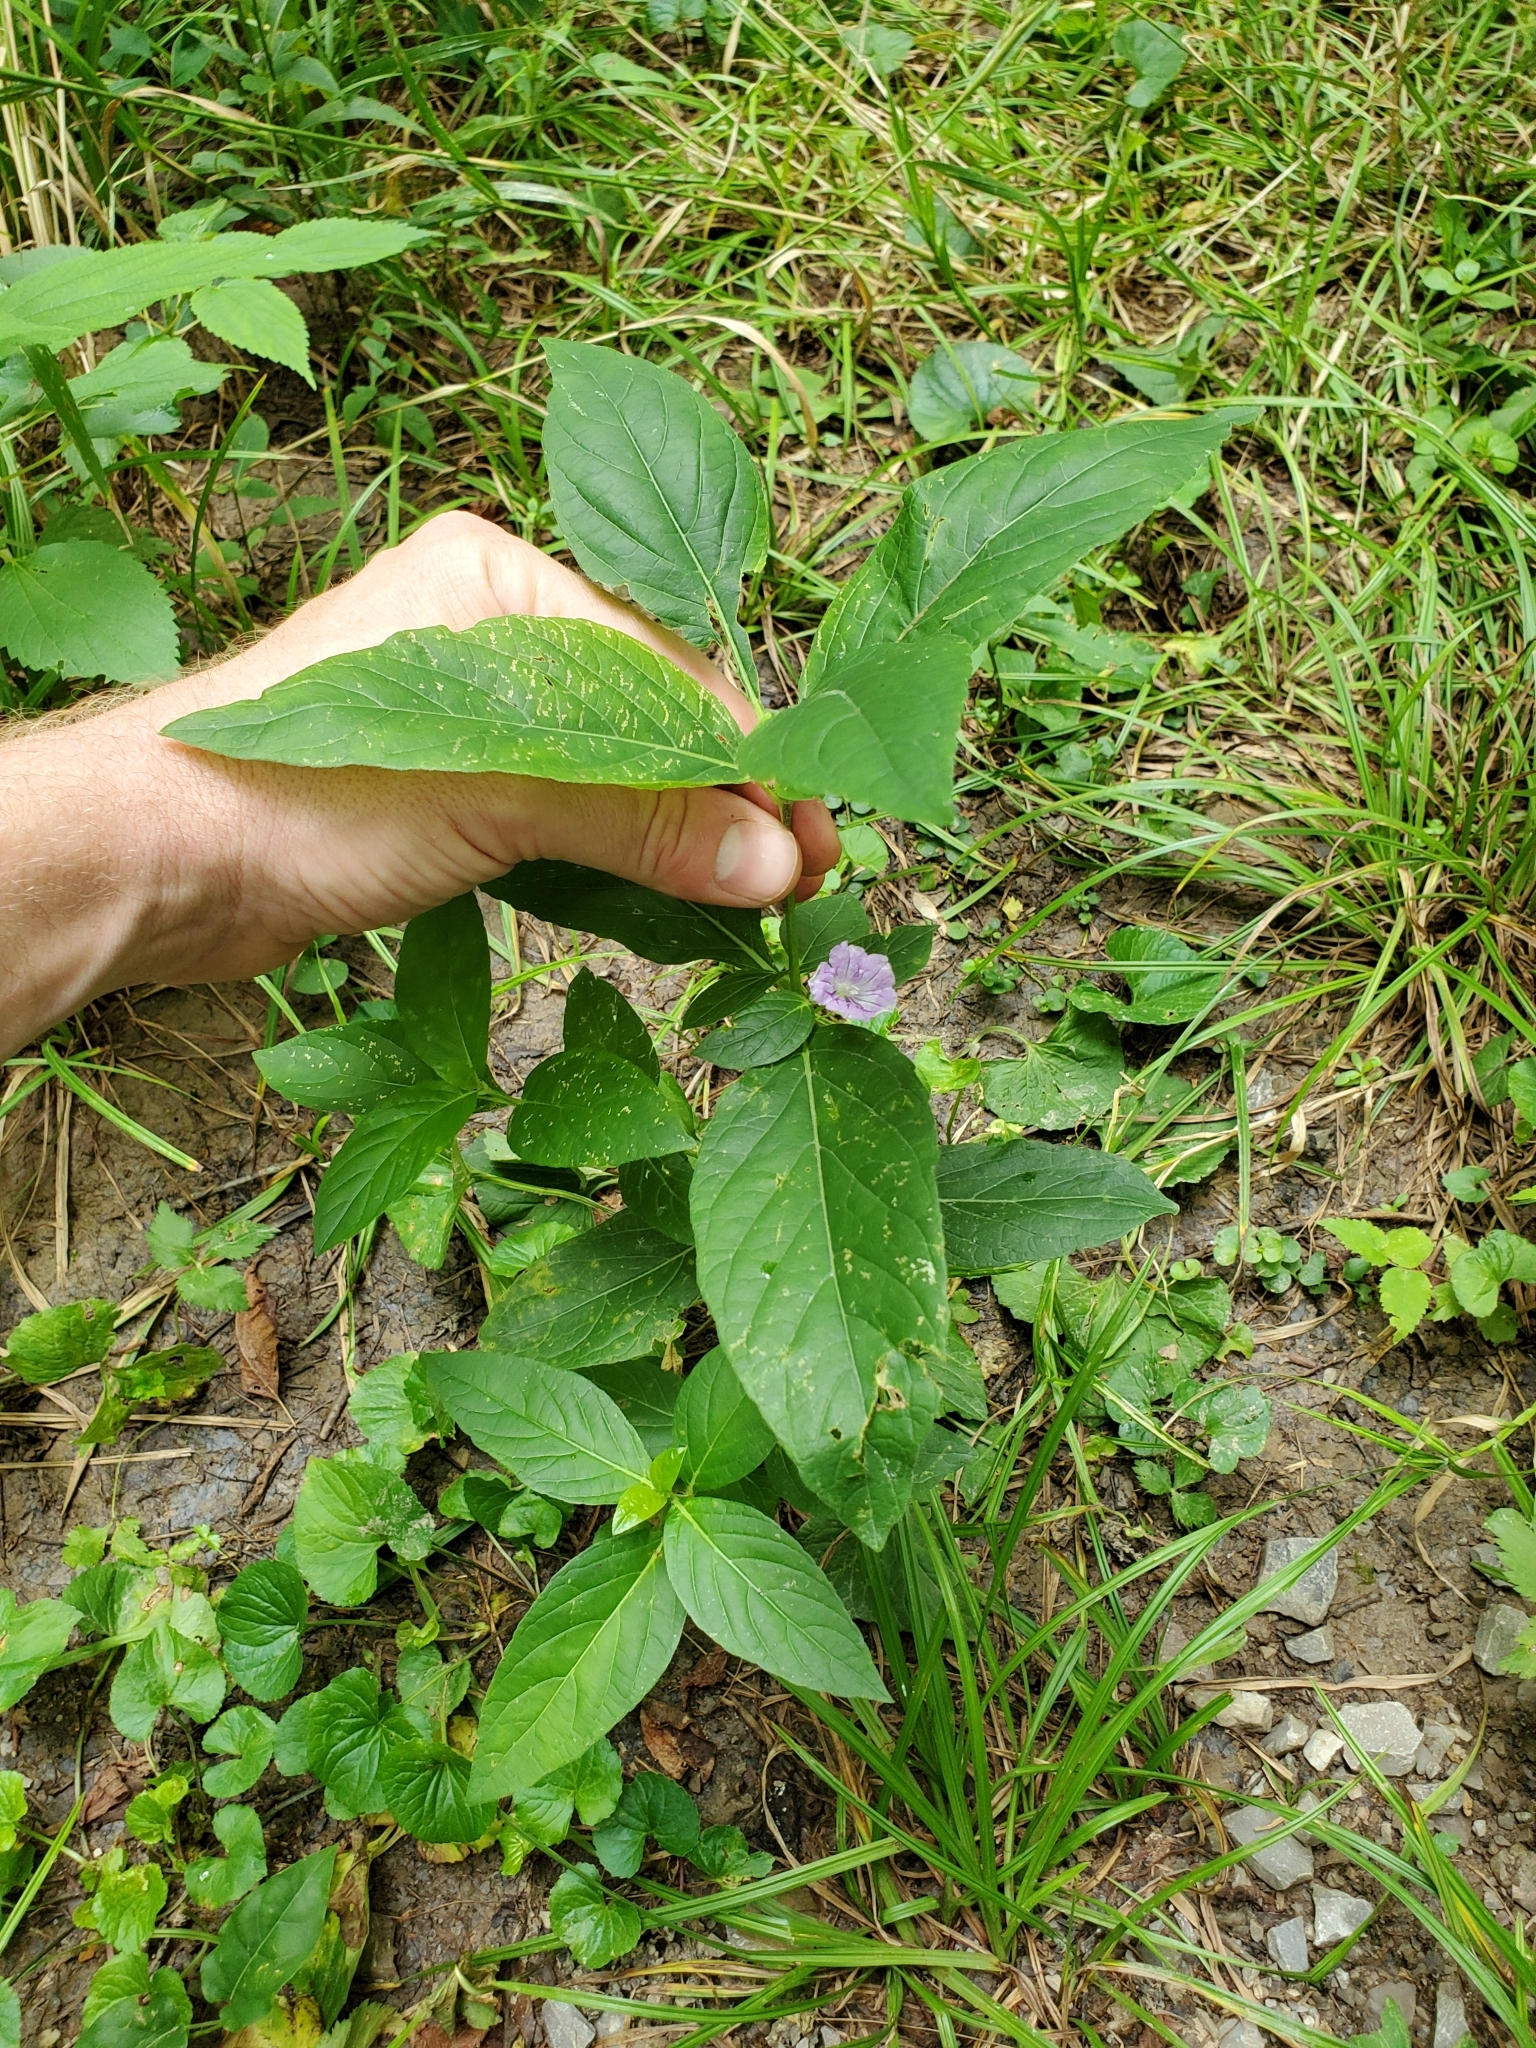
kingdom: Plantae
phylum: Tracheophyta
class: Magnoliopsida
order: Lamiales
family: Acanthaceae
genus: Ruellia
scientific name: Ruellia strepens
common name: Limestone wild petunia
